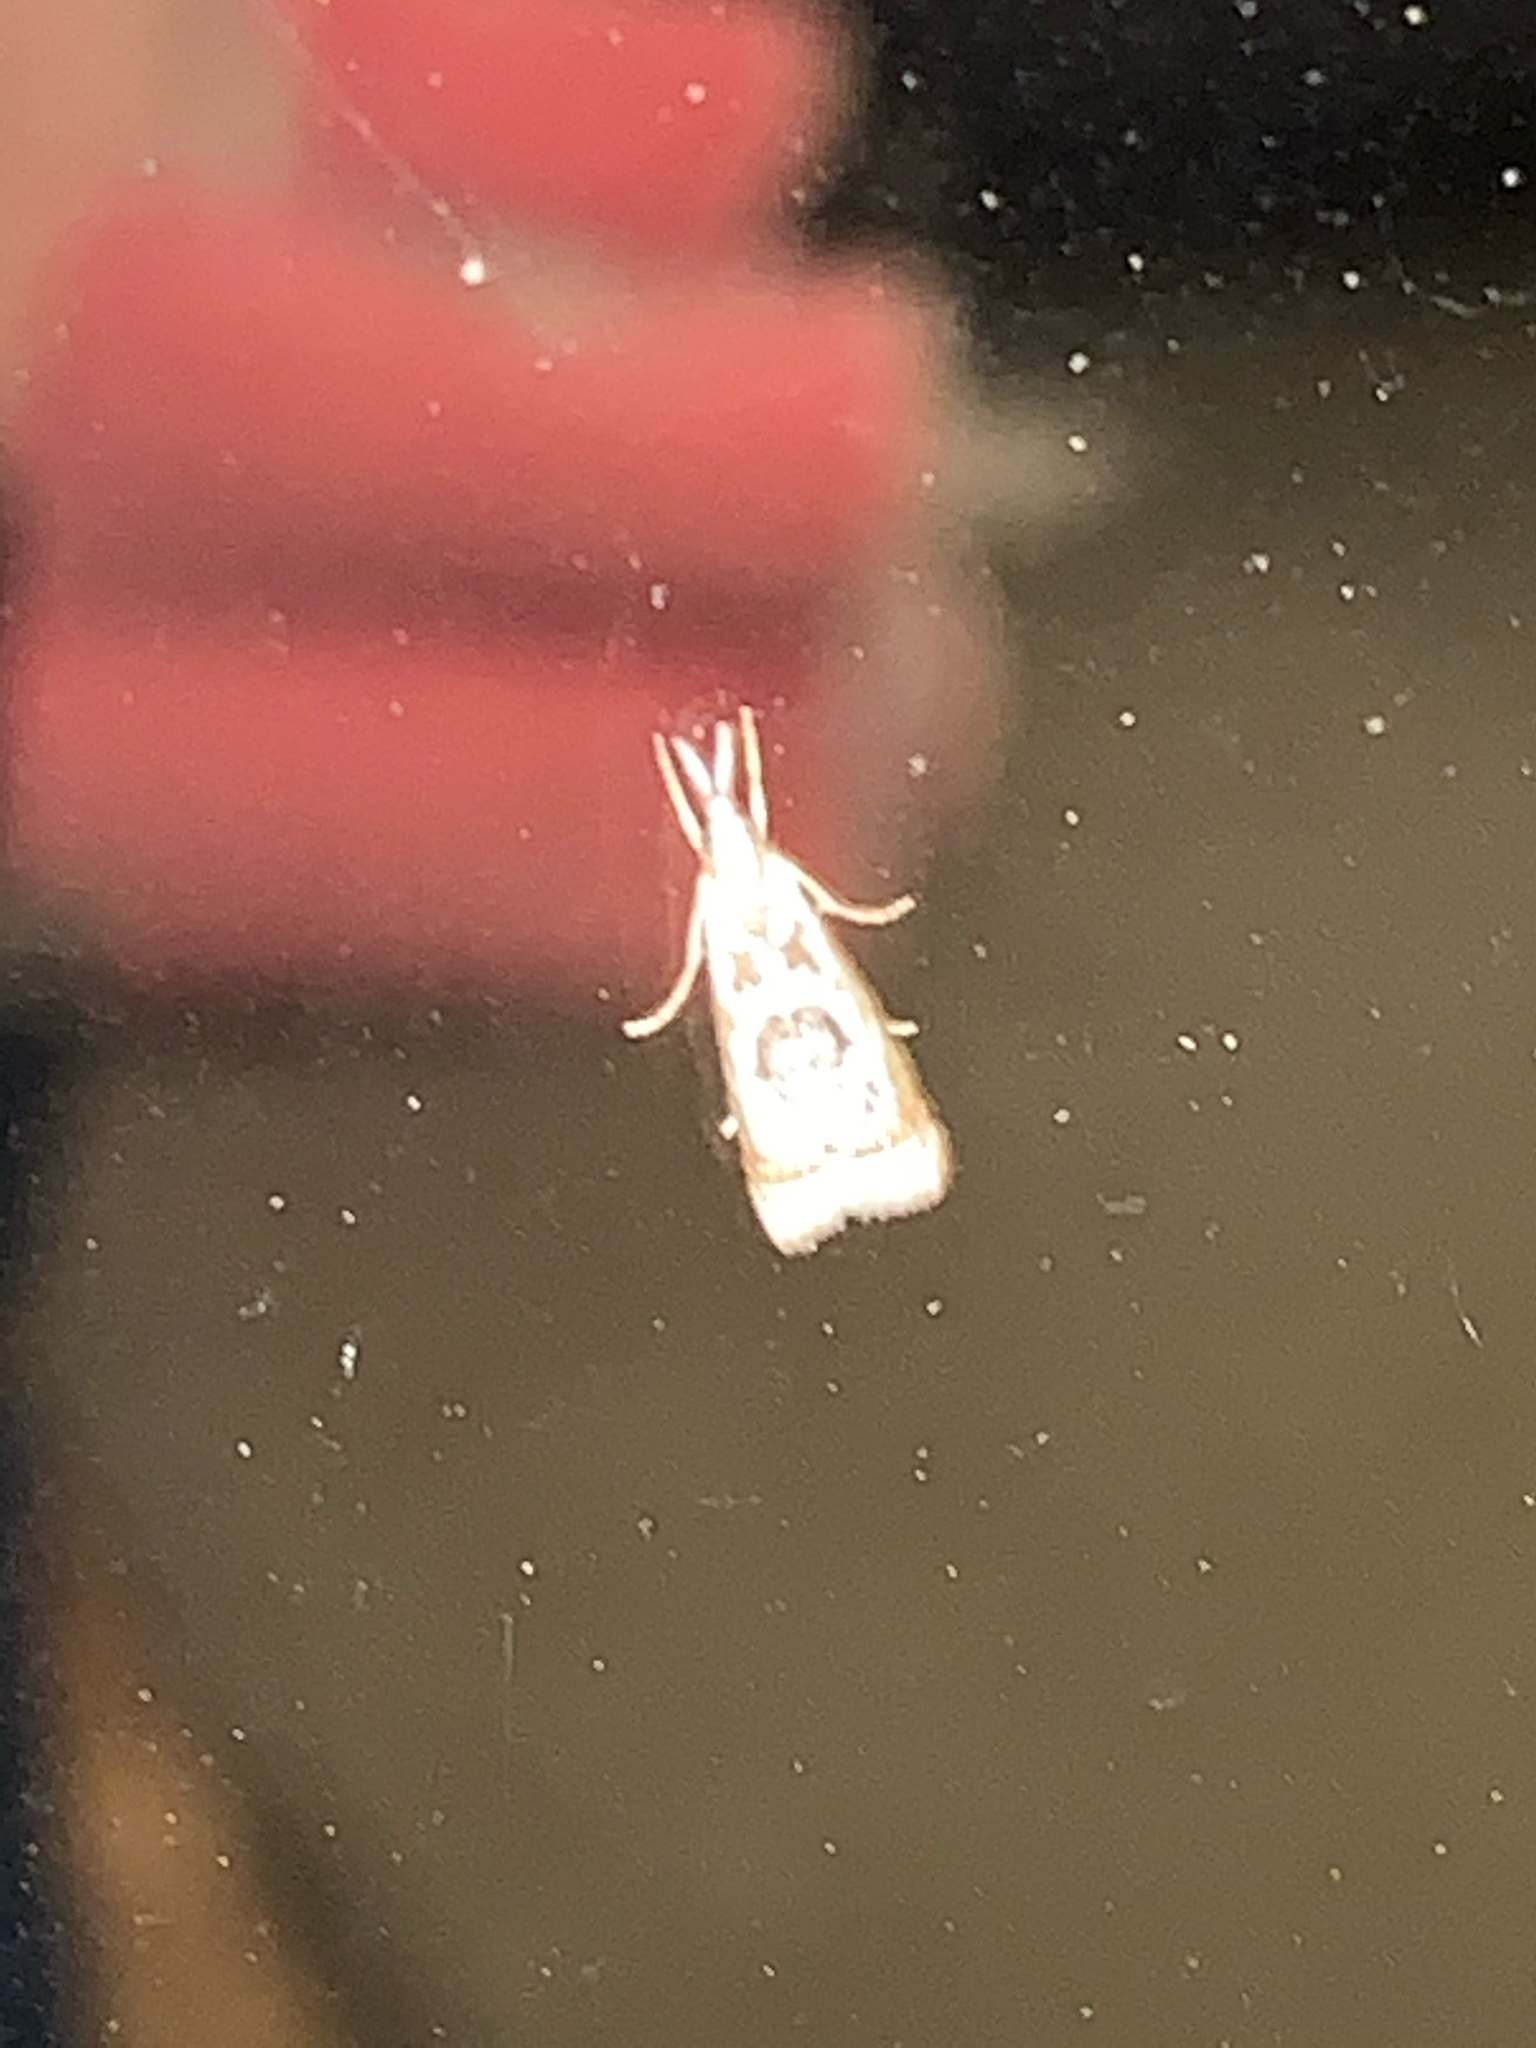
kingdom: Animalia
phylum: Arthropoda
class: Insecta
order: Lepidoptera
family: Crambidae
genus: Microcrambus
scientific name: Microcrambus elegans
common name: Elegant grass-veneer
